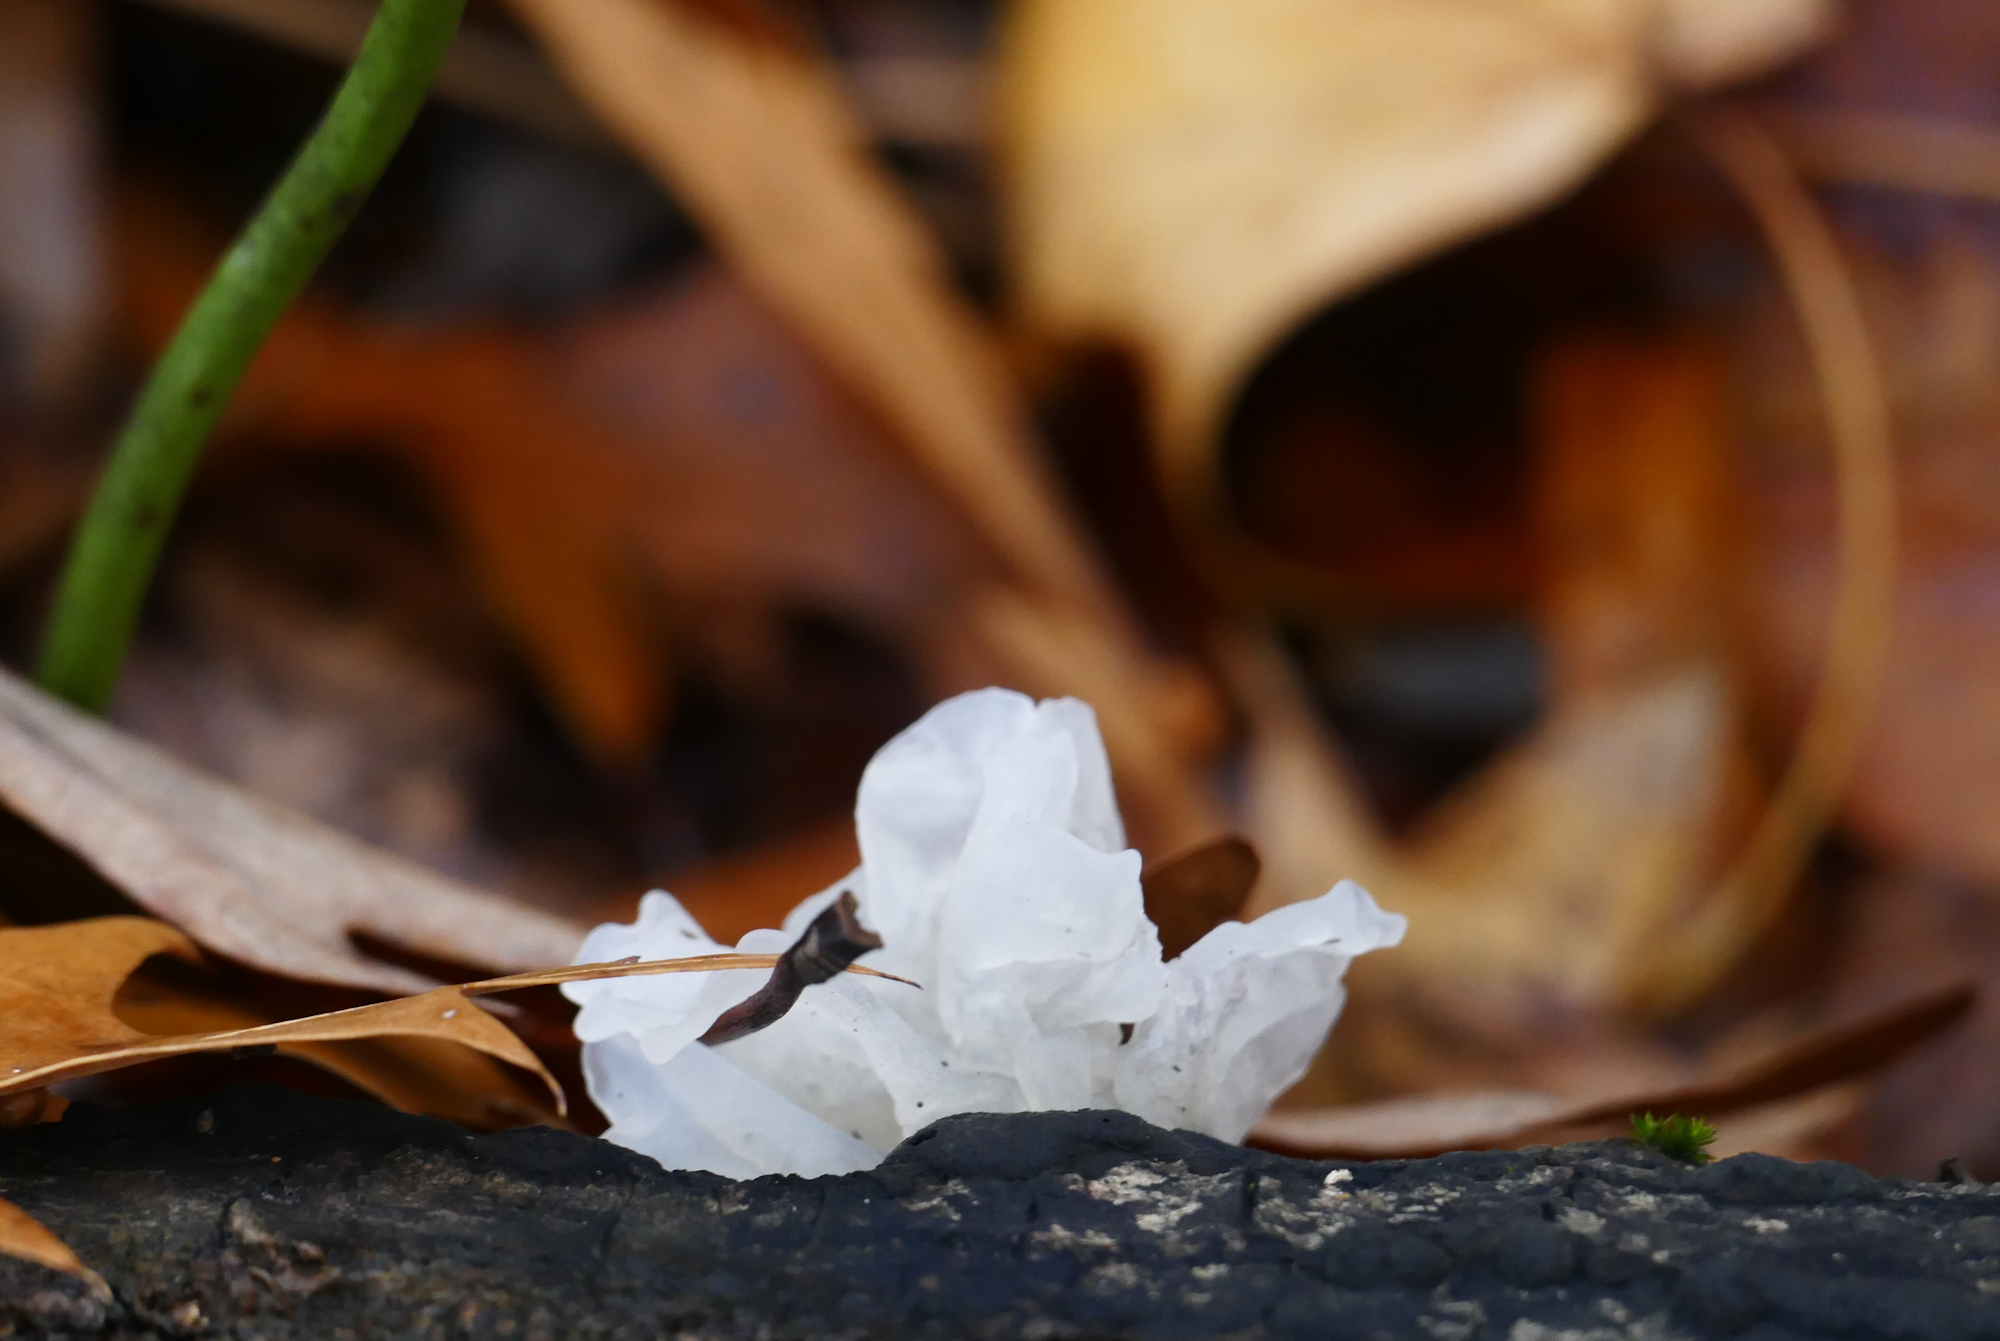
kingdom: Fungi
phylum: Basidiomycota
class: Tremellomycetes
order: Tremellales
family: Tremellaceae
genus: Tremella
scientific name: Tremella fuciformis
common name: Snow fungus
